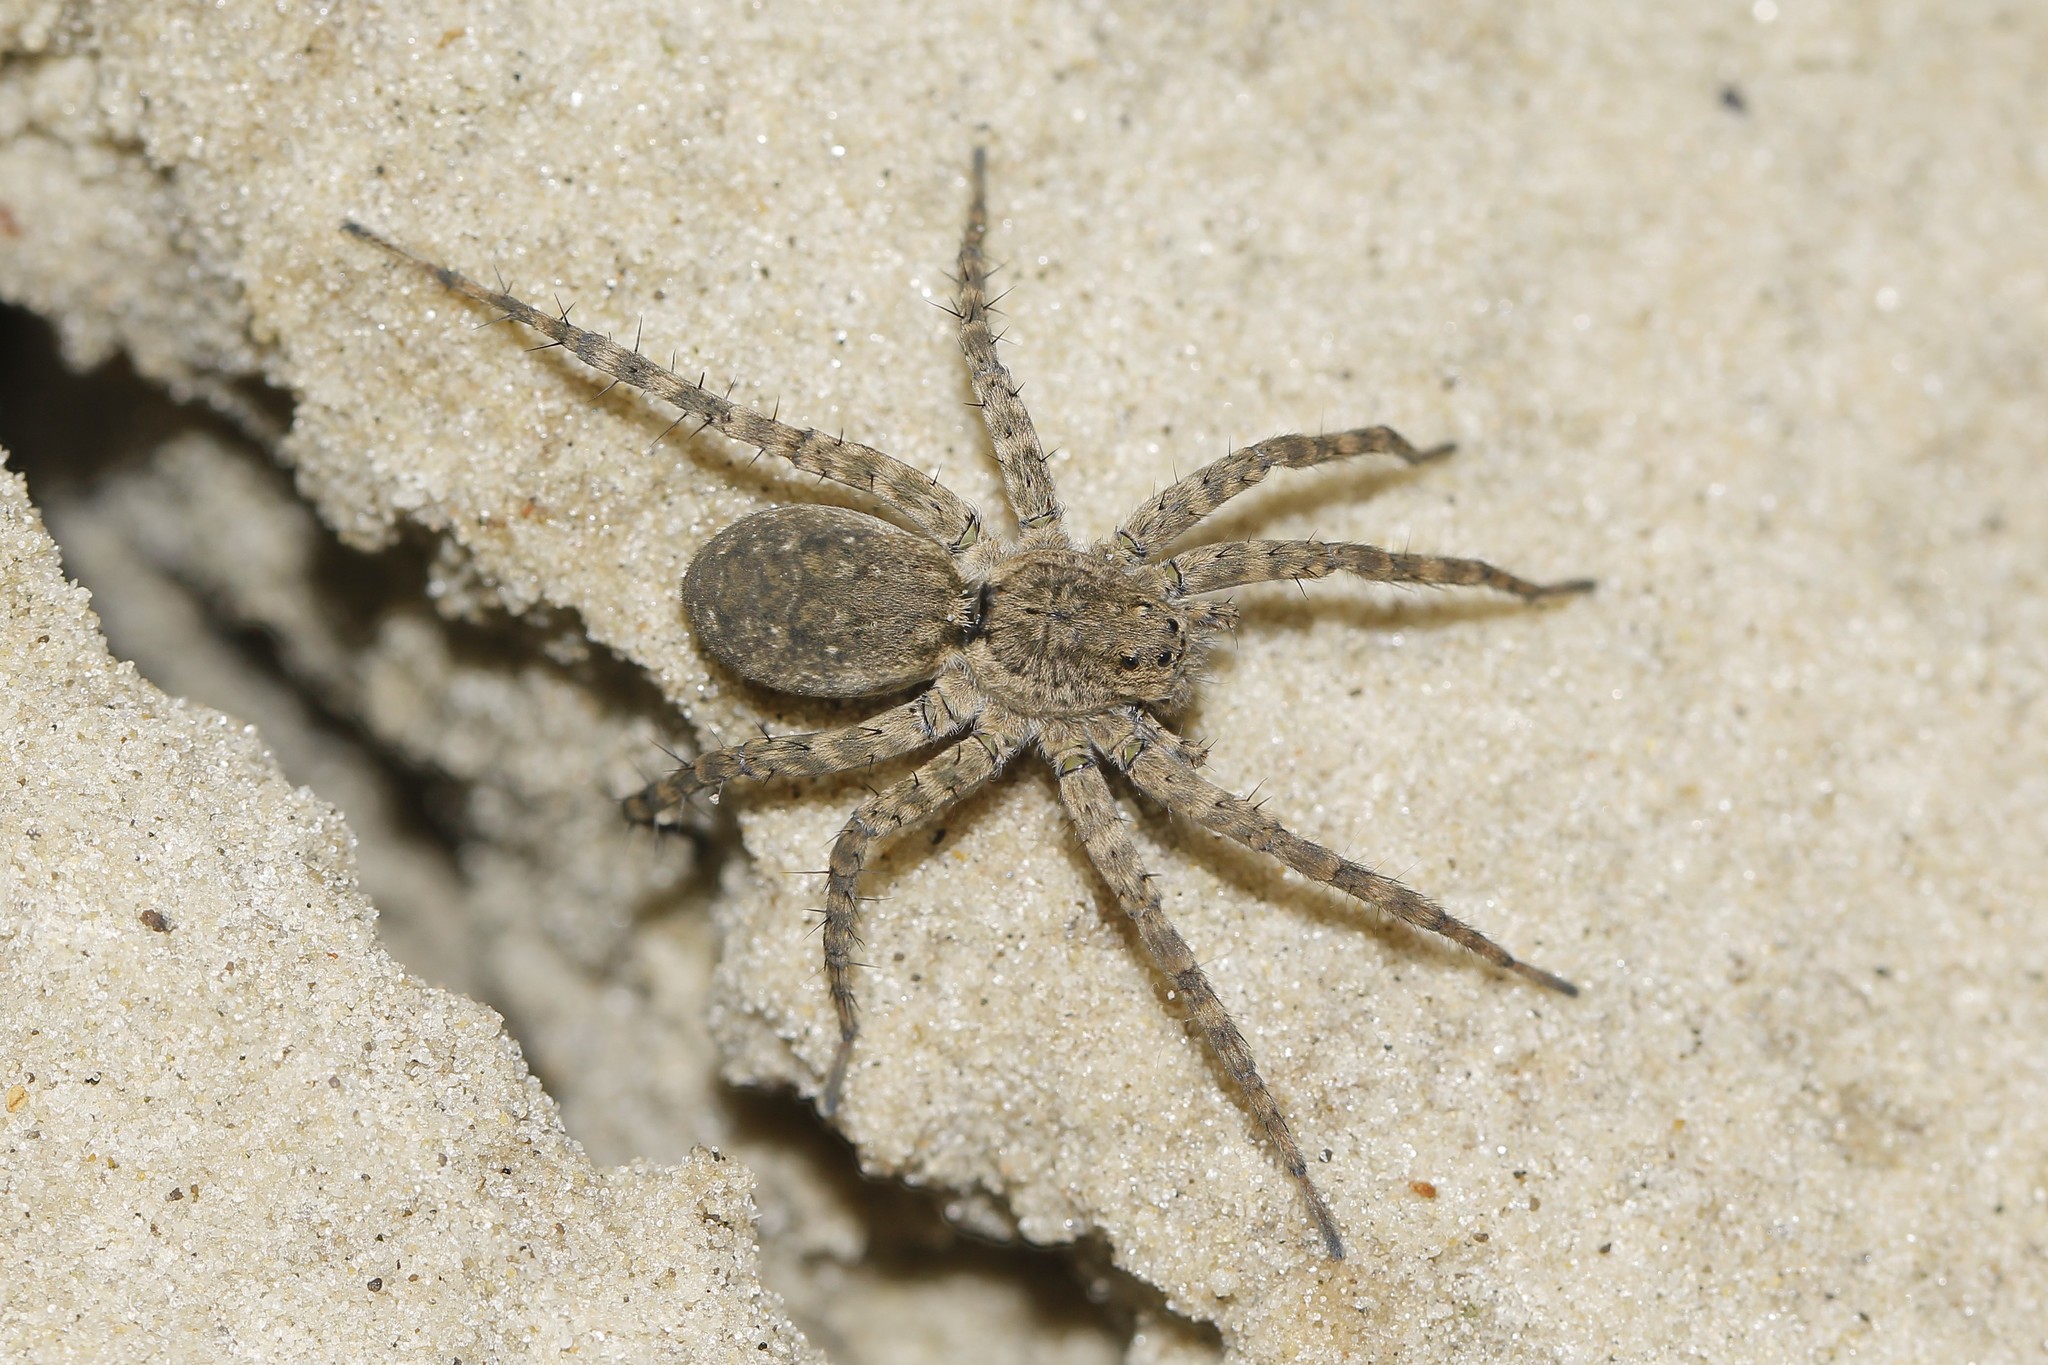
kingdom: Animalia
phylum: Arthropoda
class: Arachnida
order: Araneae
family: Lycosidae
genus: Pardosa
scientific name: Pardosa nebulosa
